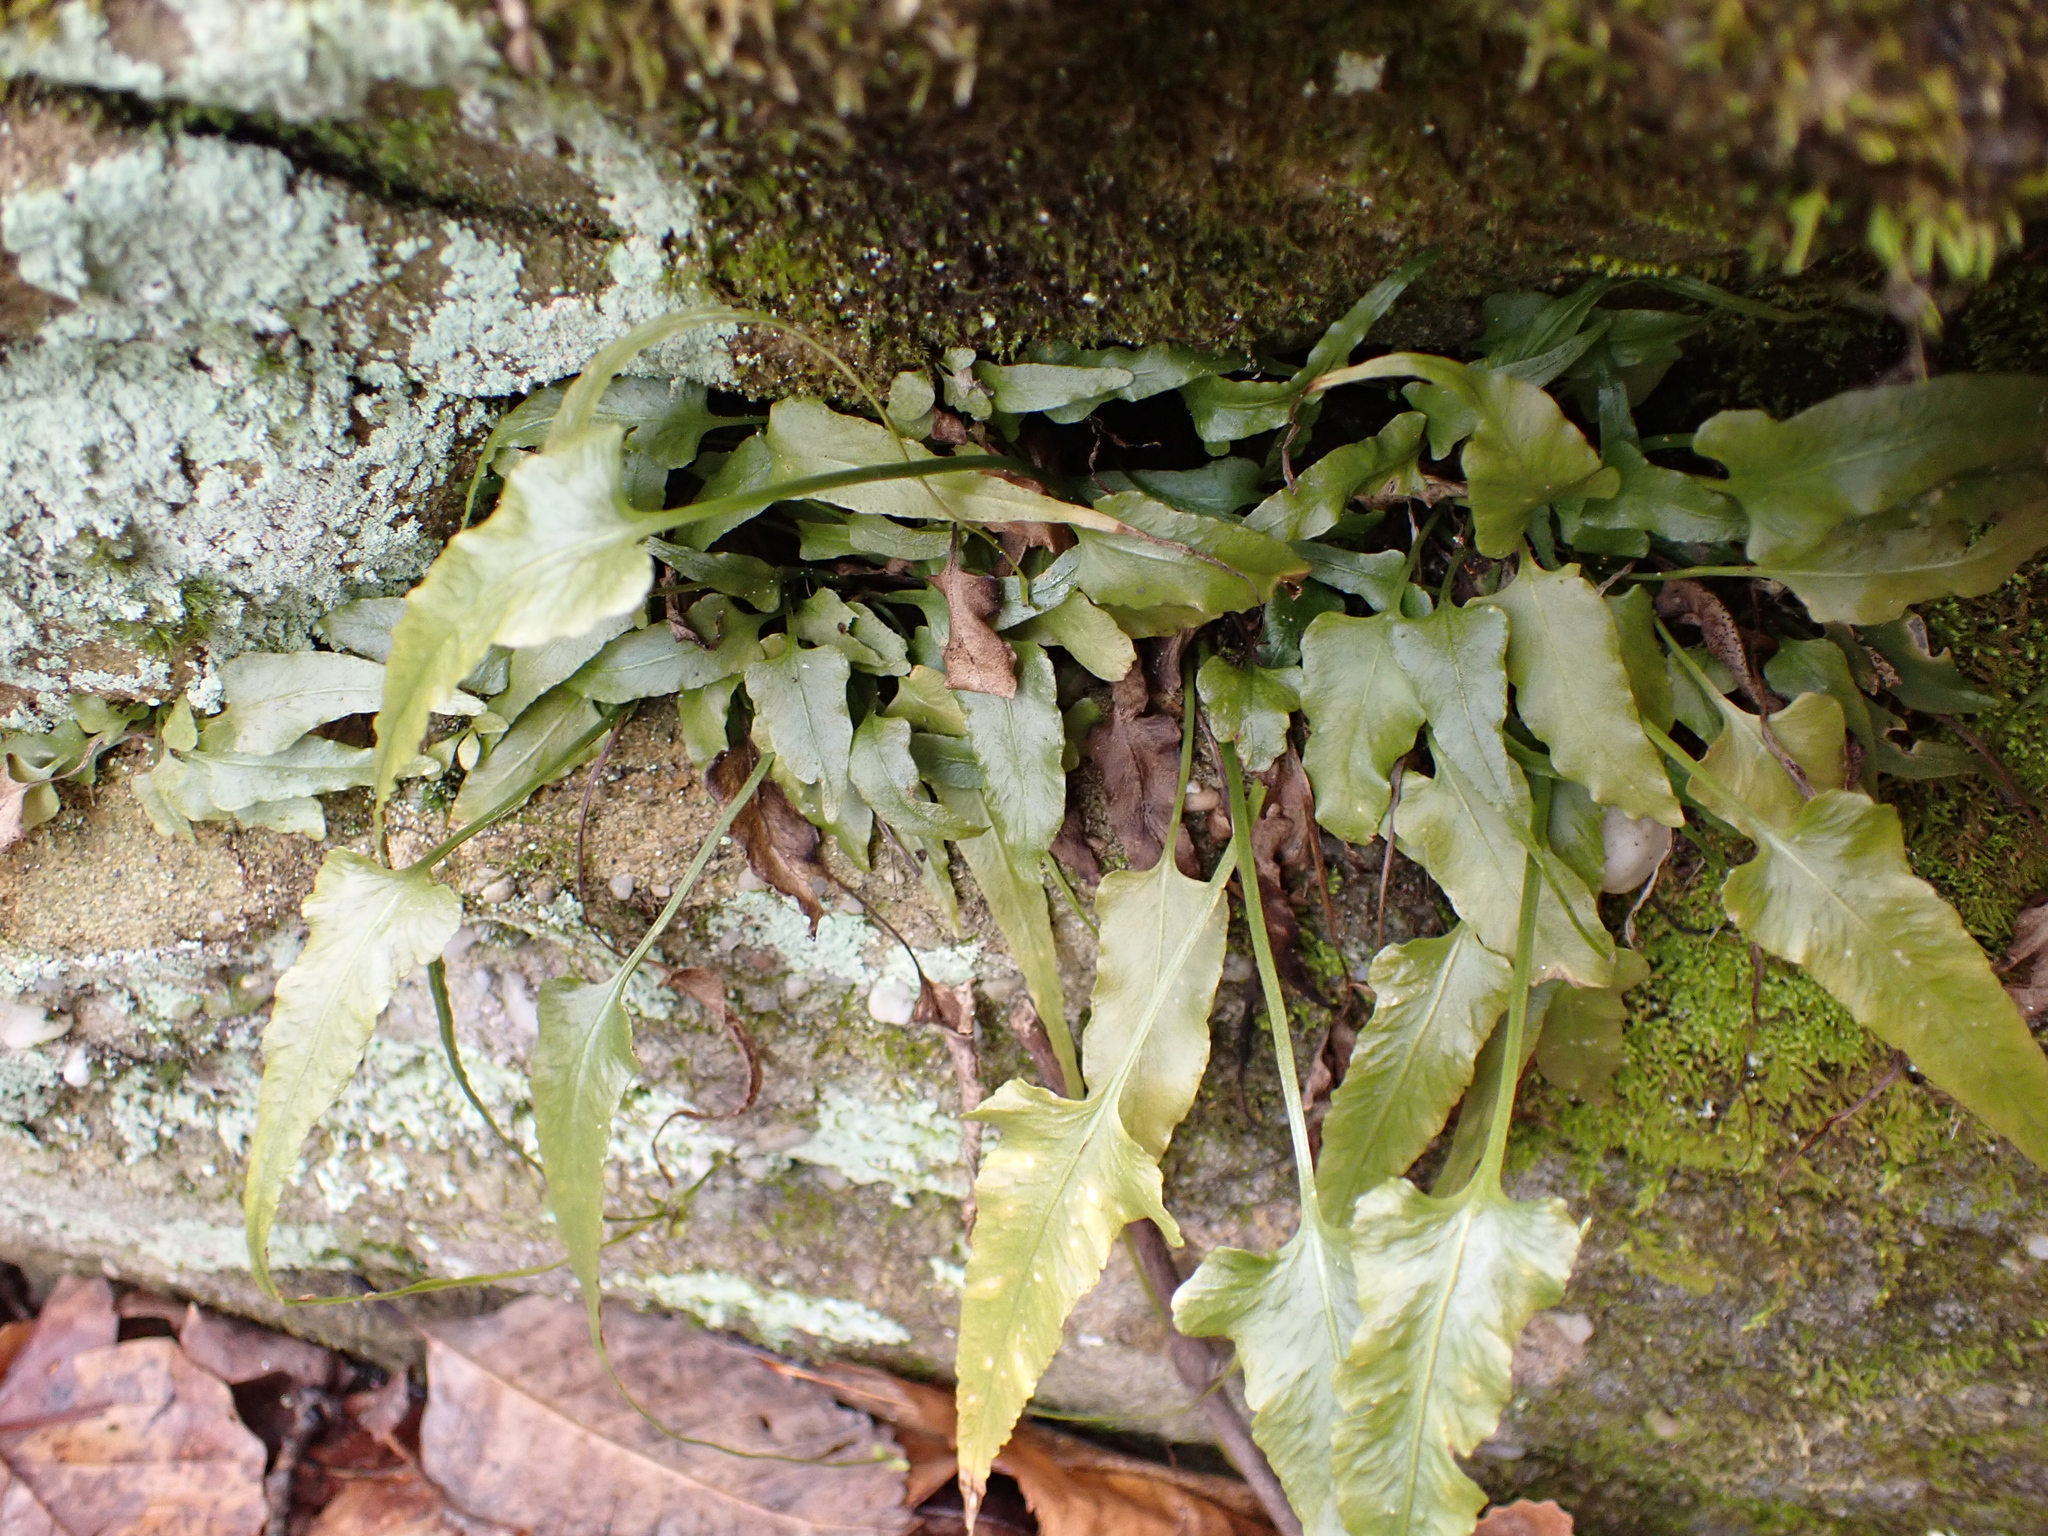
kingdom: Plantae
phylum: Tracheophyta
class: Polypodiopsida
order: Polypodiales
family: Aspleniaceae
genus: Asplenium
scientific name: Asplenium rhizophyllum
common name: Walking fern
